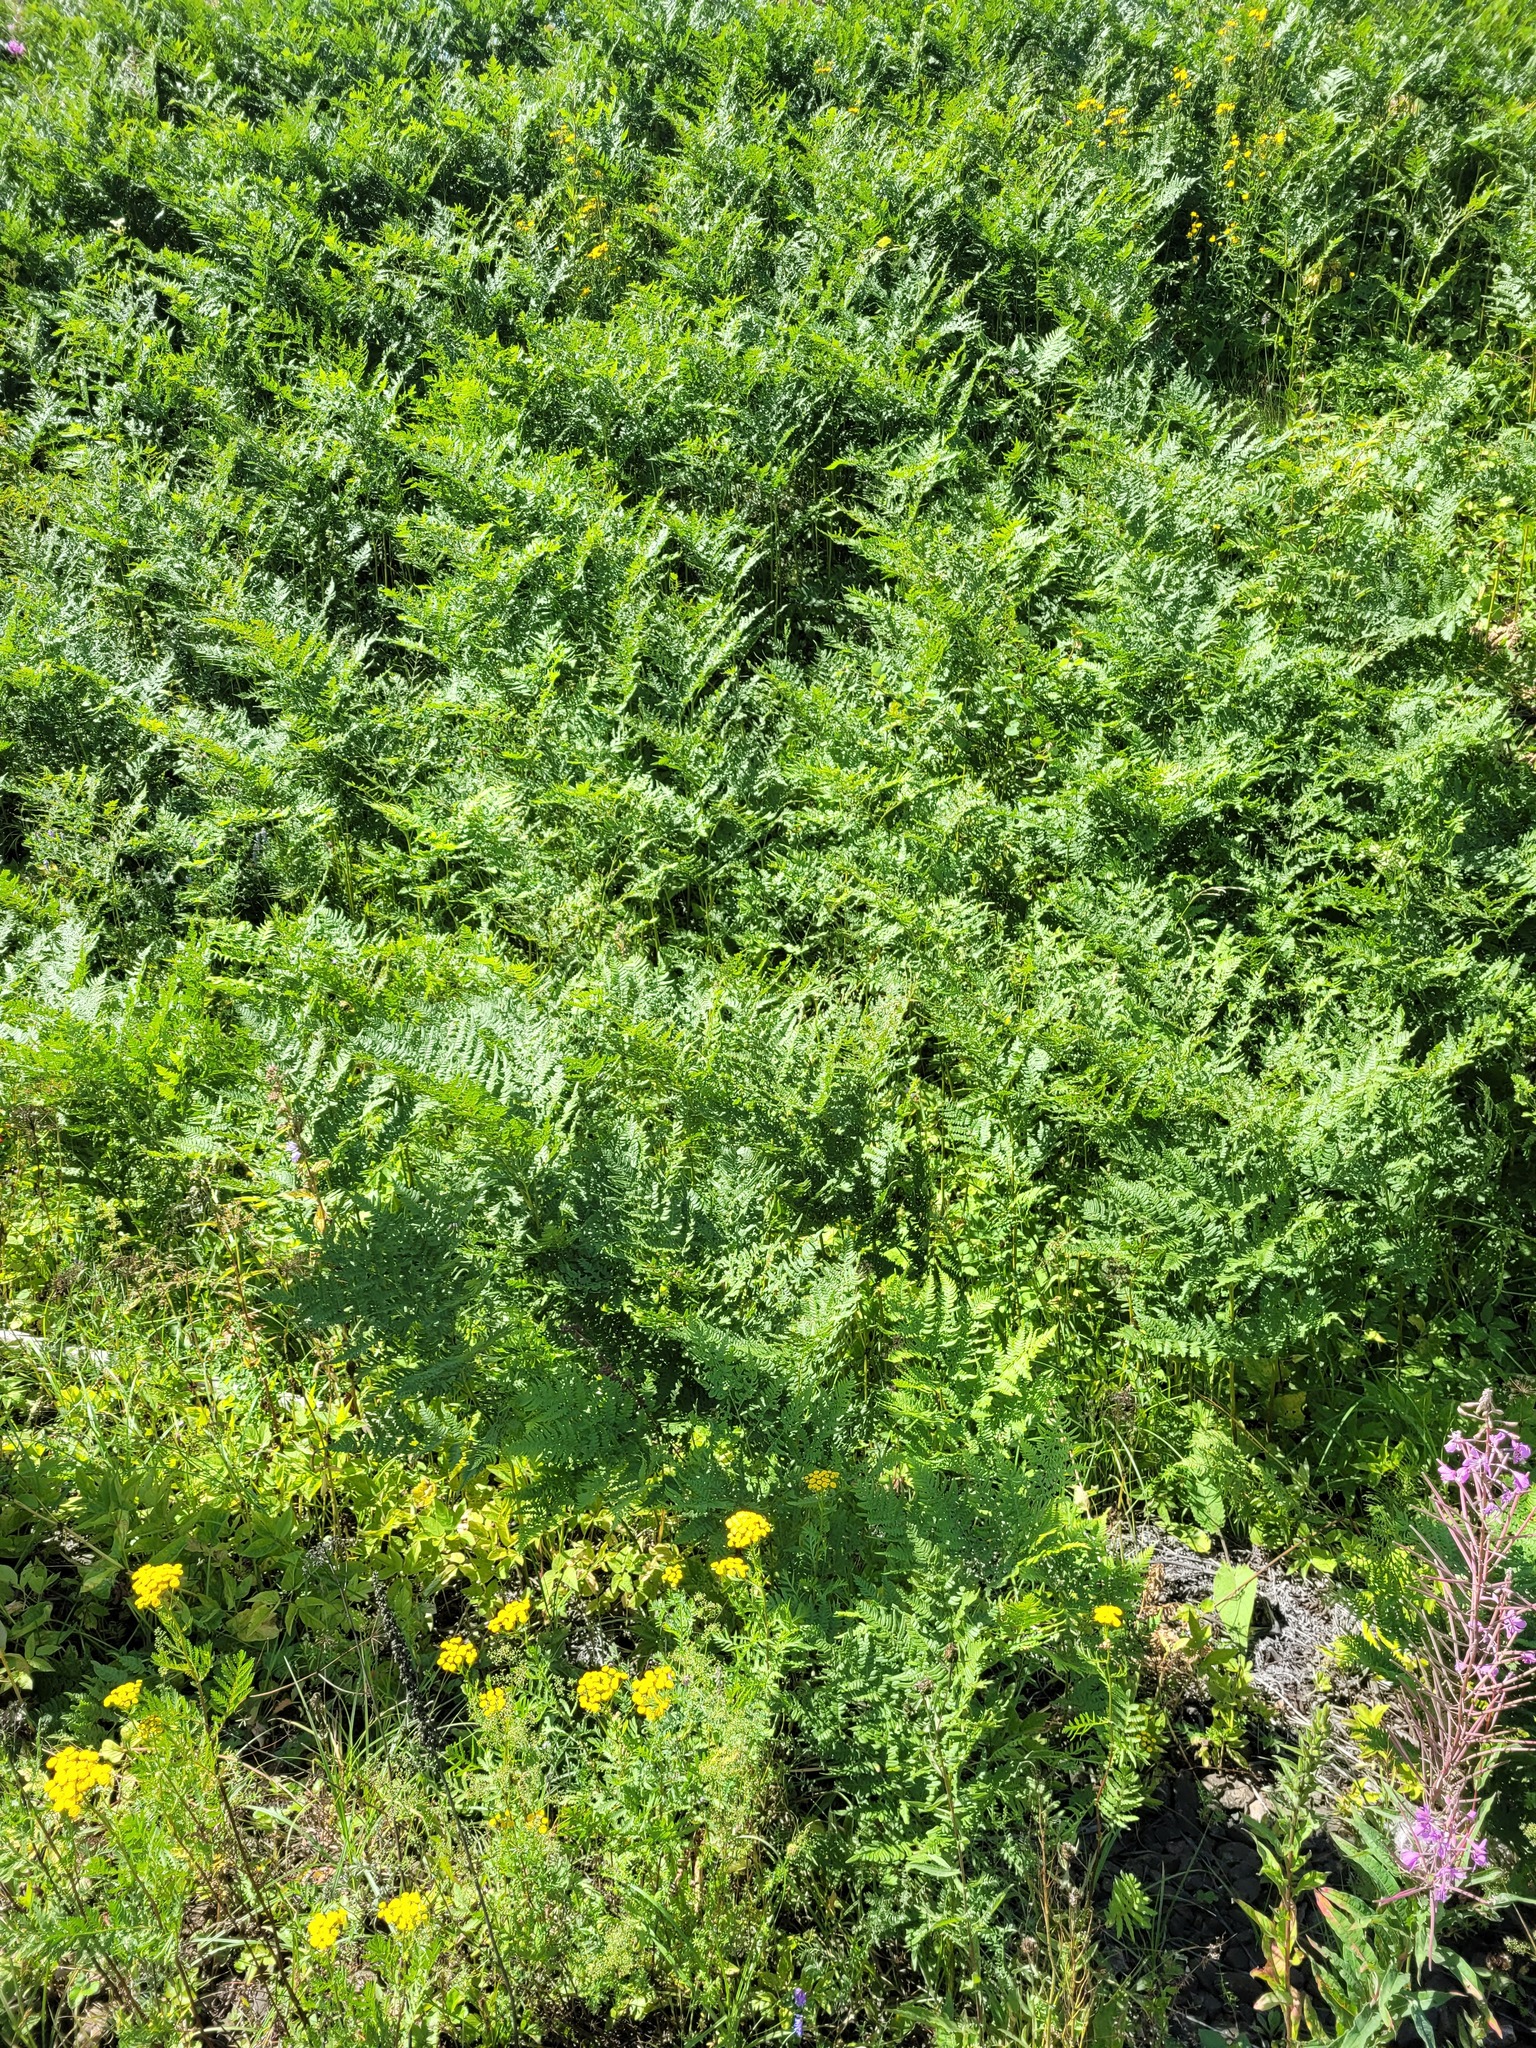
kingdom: Plantae
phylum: Tracheophyta
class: Polypodiopsida
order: Polypodiales
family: Dennstaedtiaceae
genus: Pteridium
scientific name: Pteridium aquilinum
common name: Bracken
